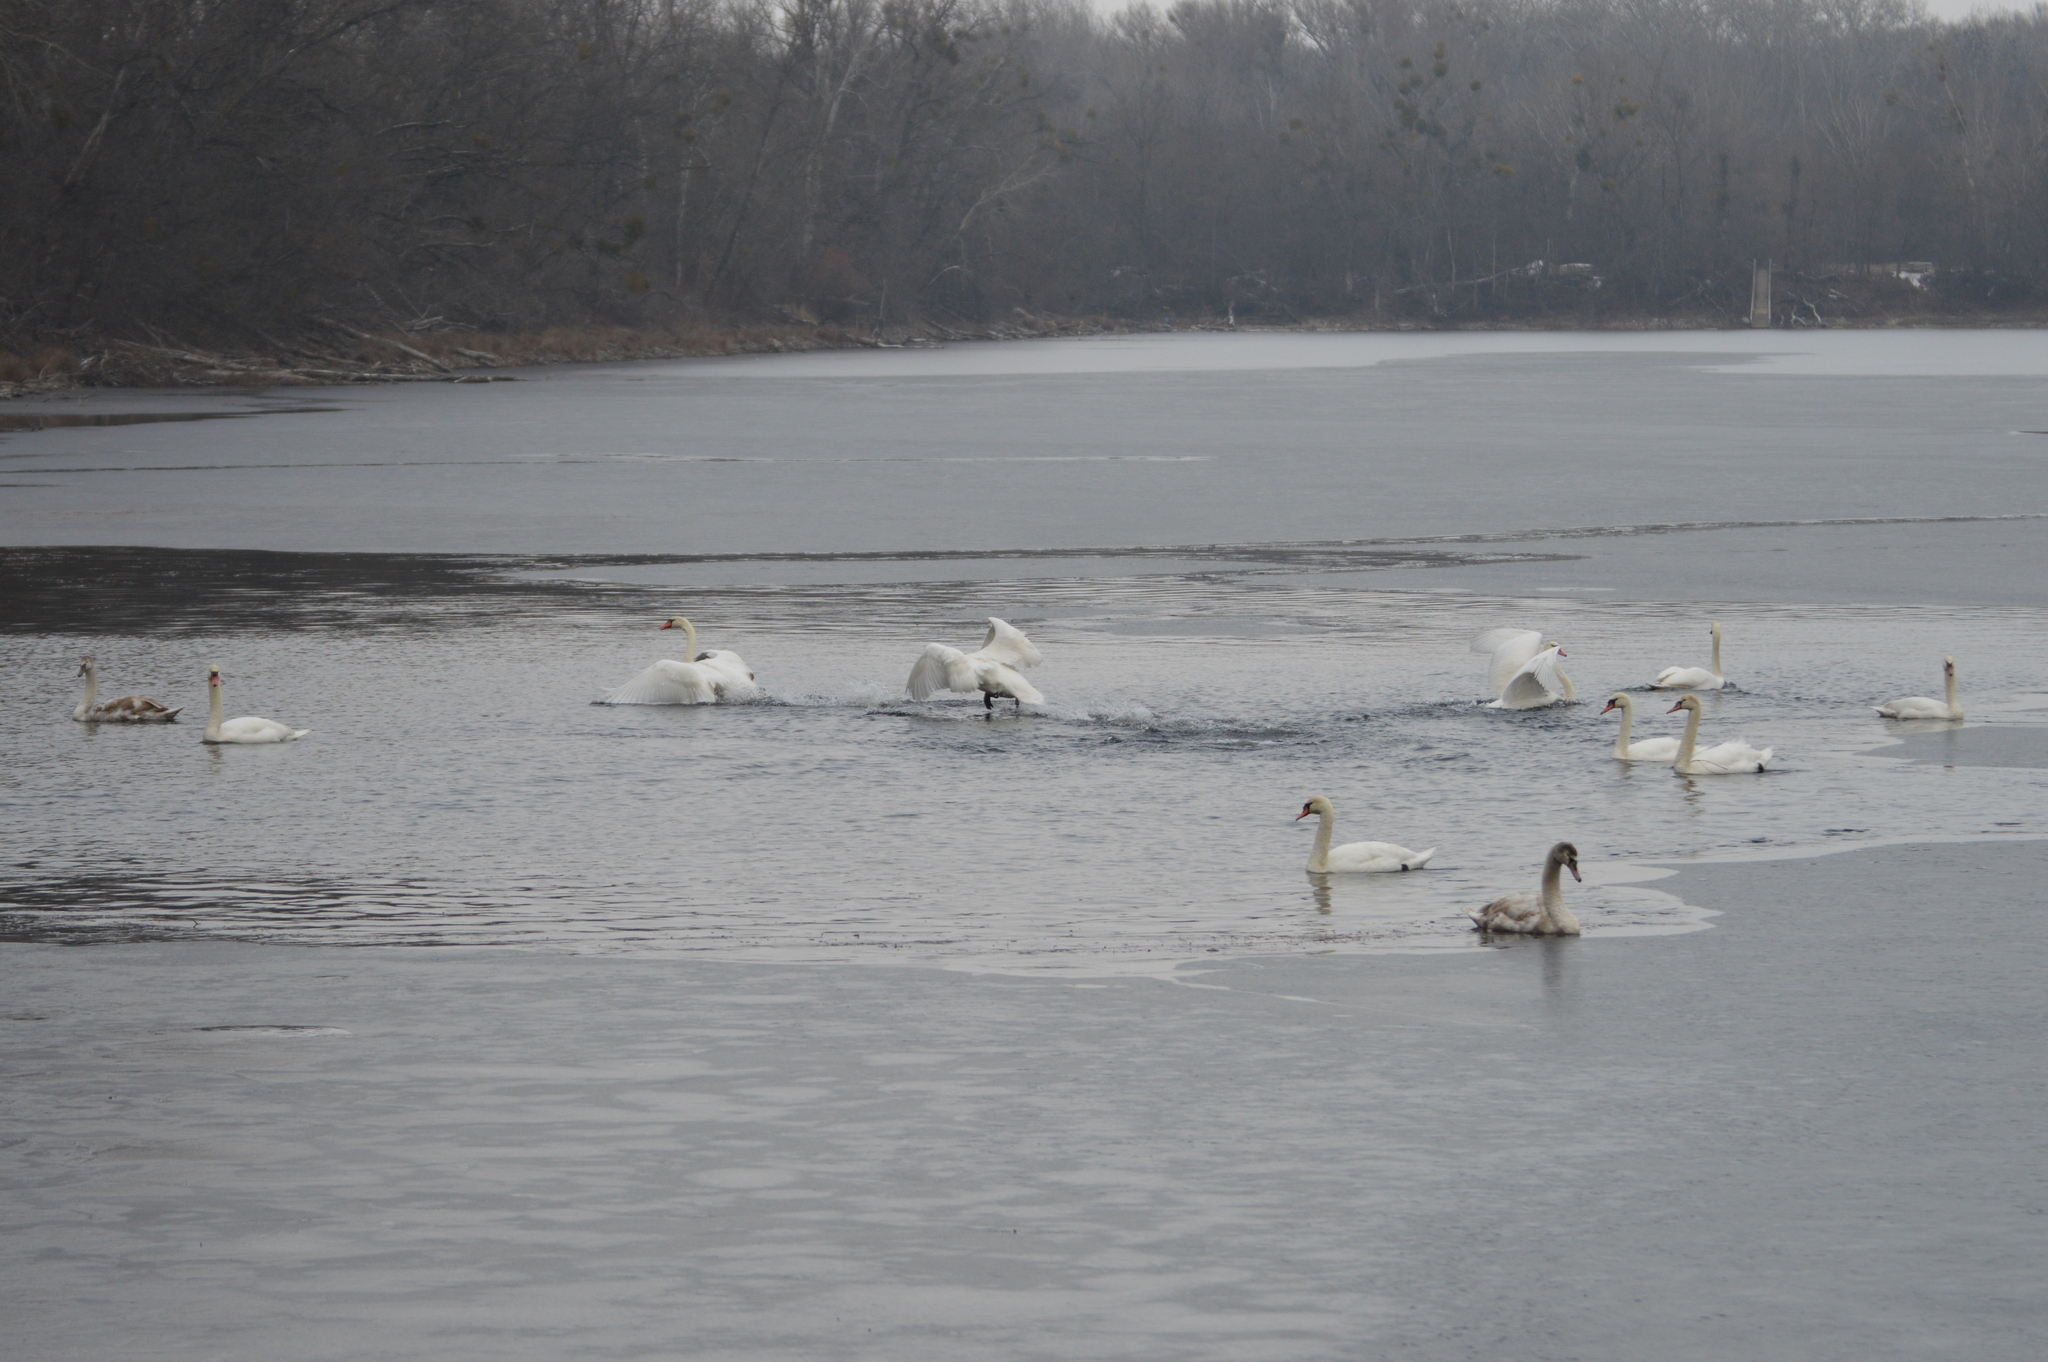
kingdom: Animalia
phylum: Chordata
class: Aves
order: Anseriformes
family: Anatidae
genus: Cygnus
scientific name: Cygnus olor
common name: Mute swan
